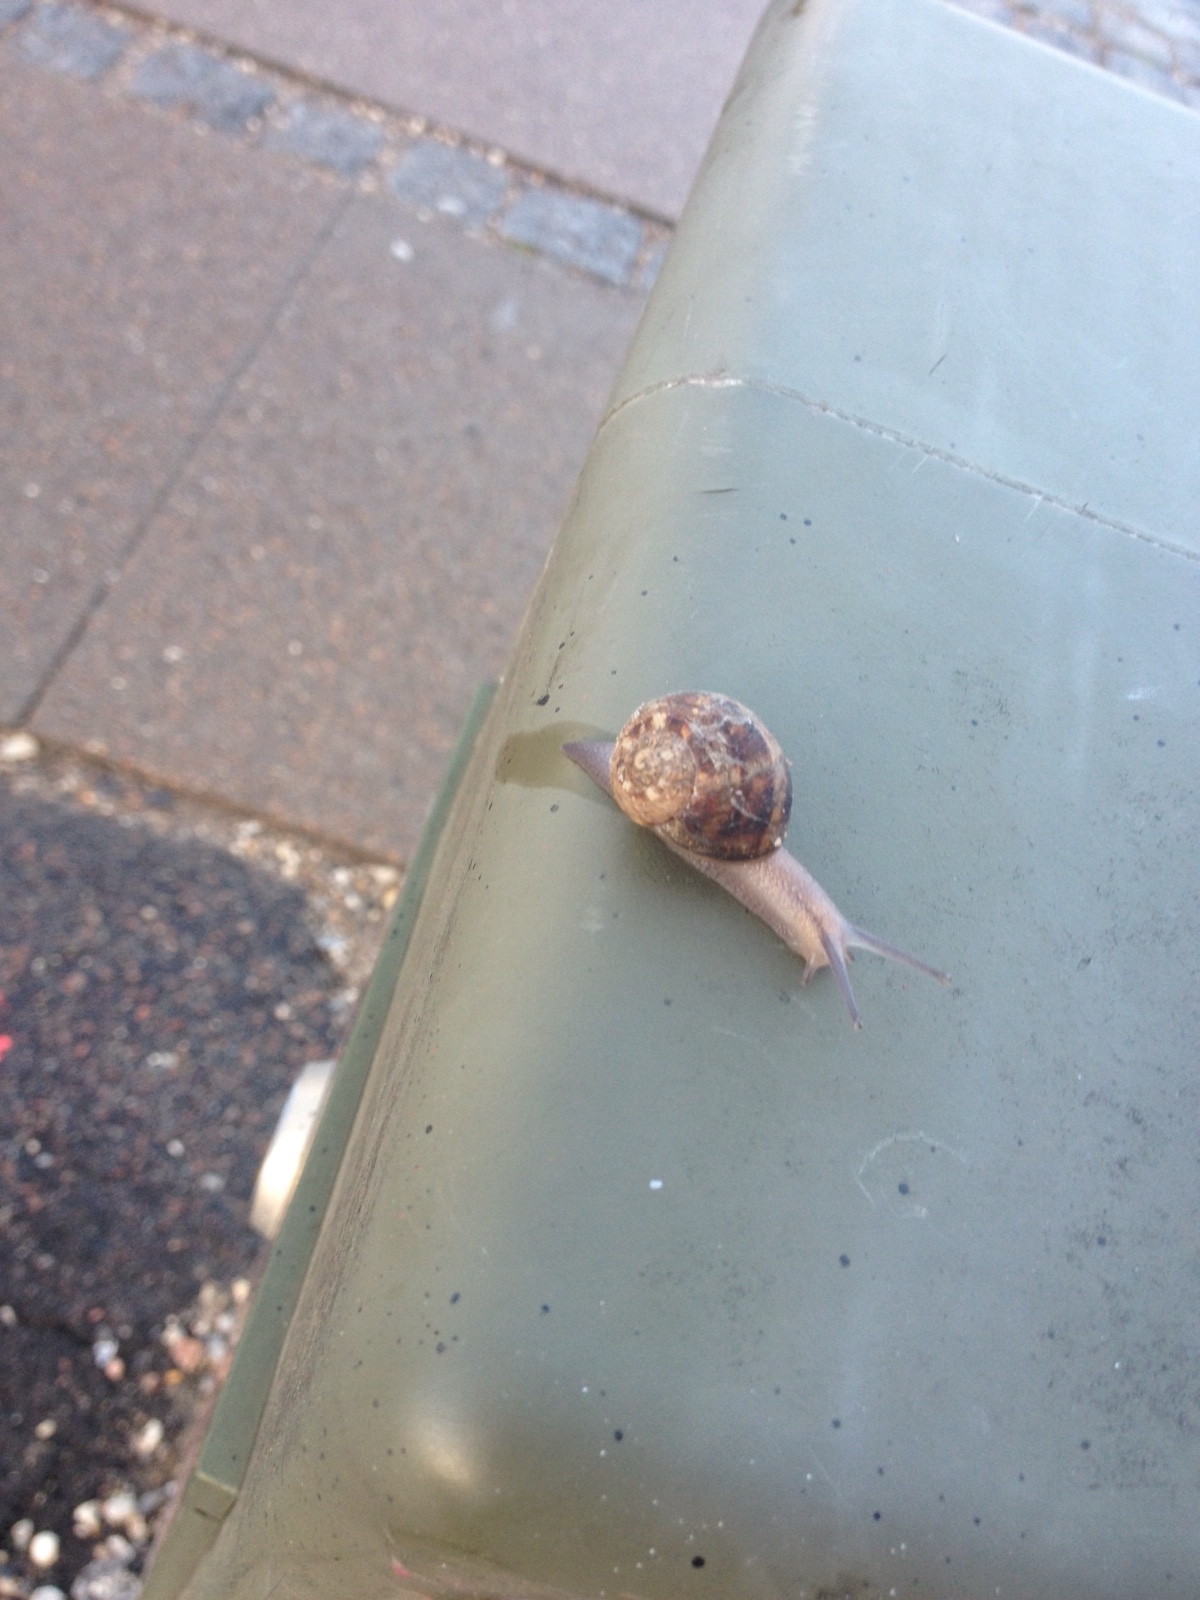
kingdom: Animalia
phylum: Mollusca
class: Gastropoda
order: Stylommatophora
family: Helicidae
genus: Cornu
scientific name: Cornu aspersum
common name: Brown garden snail
